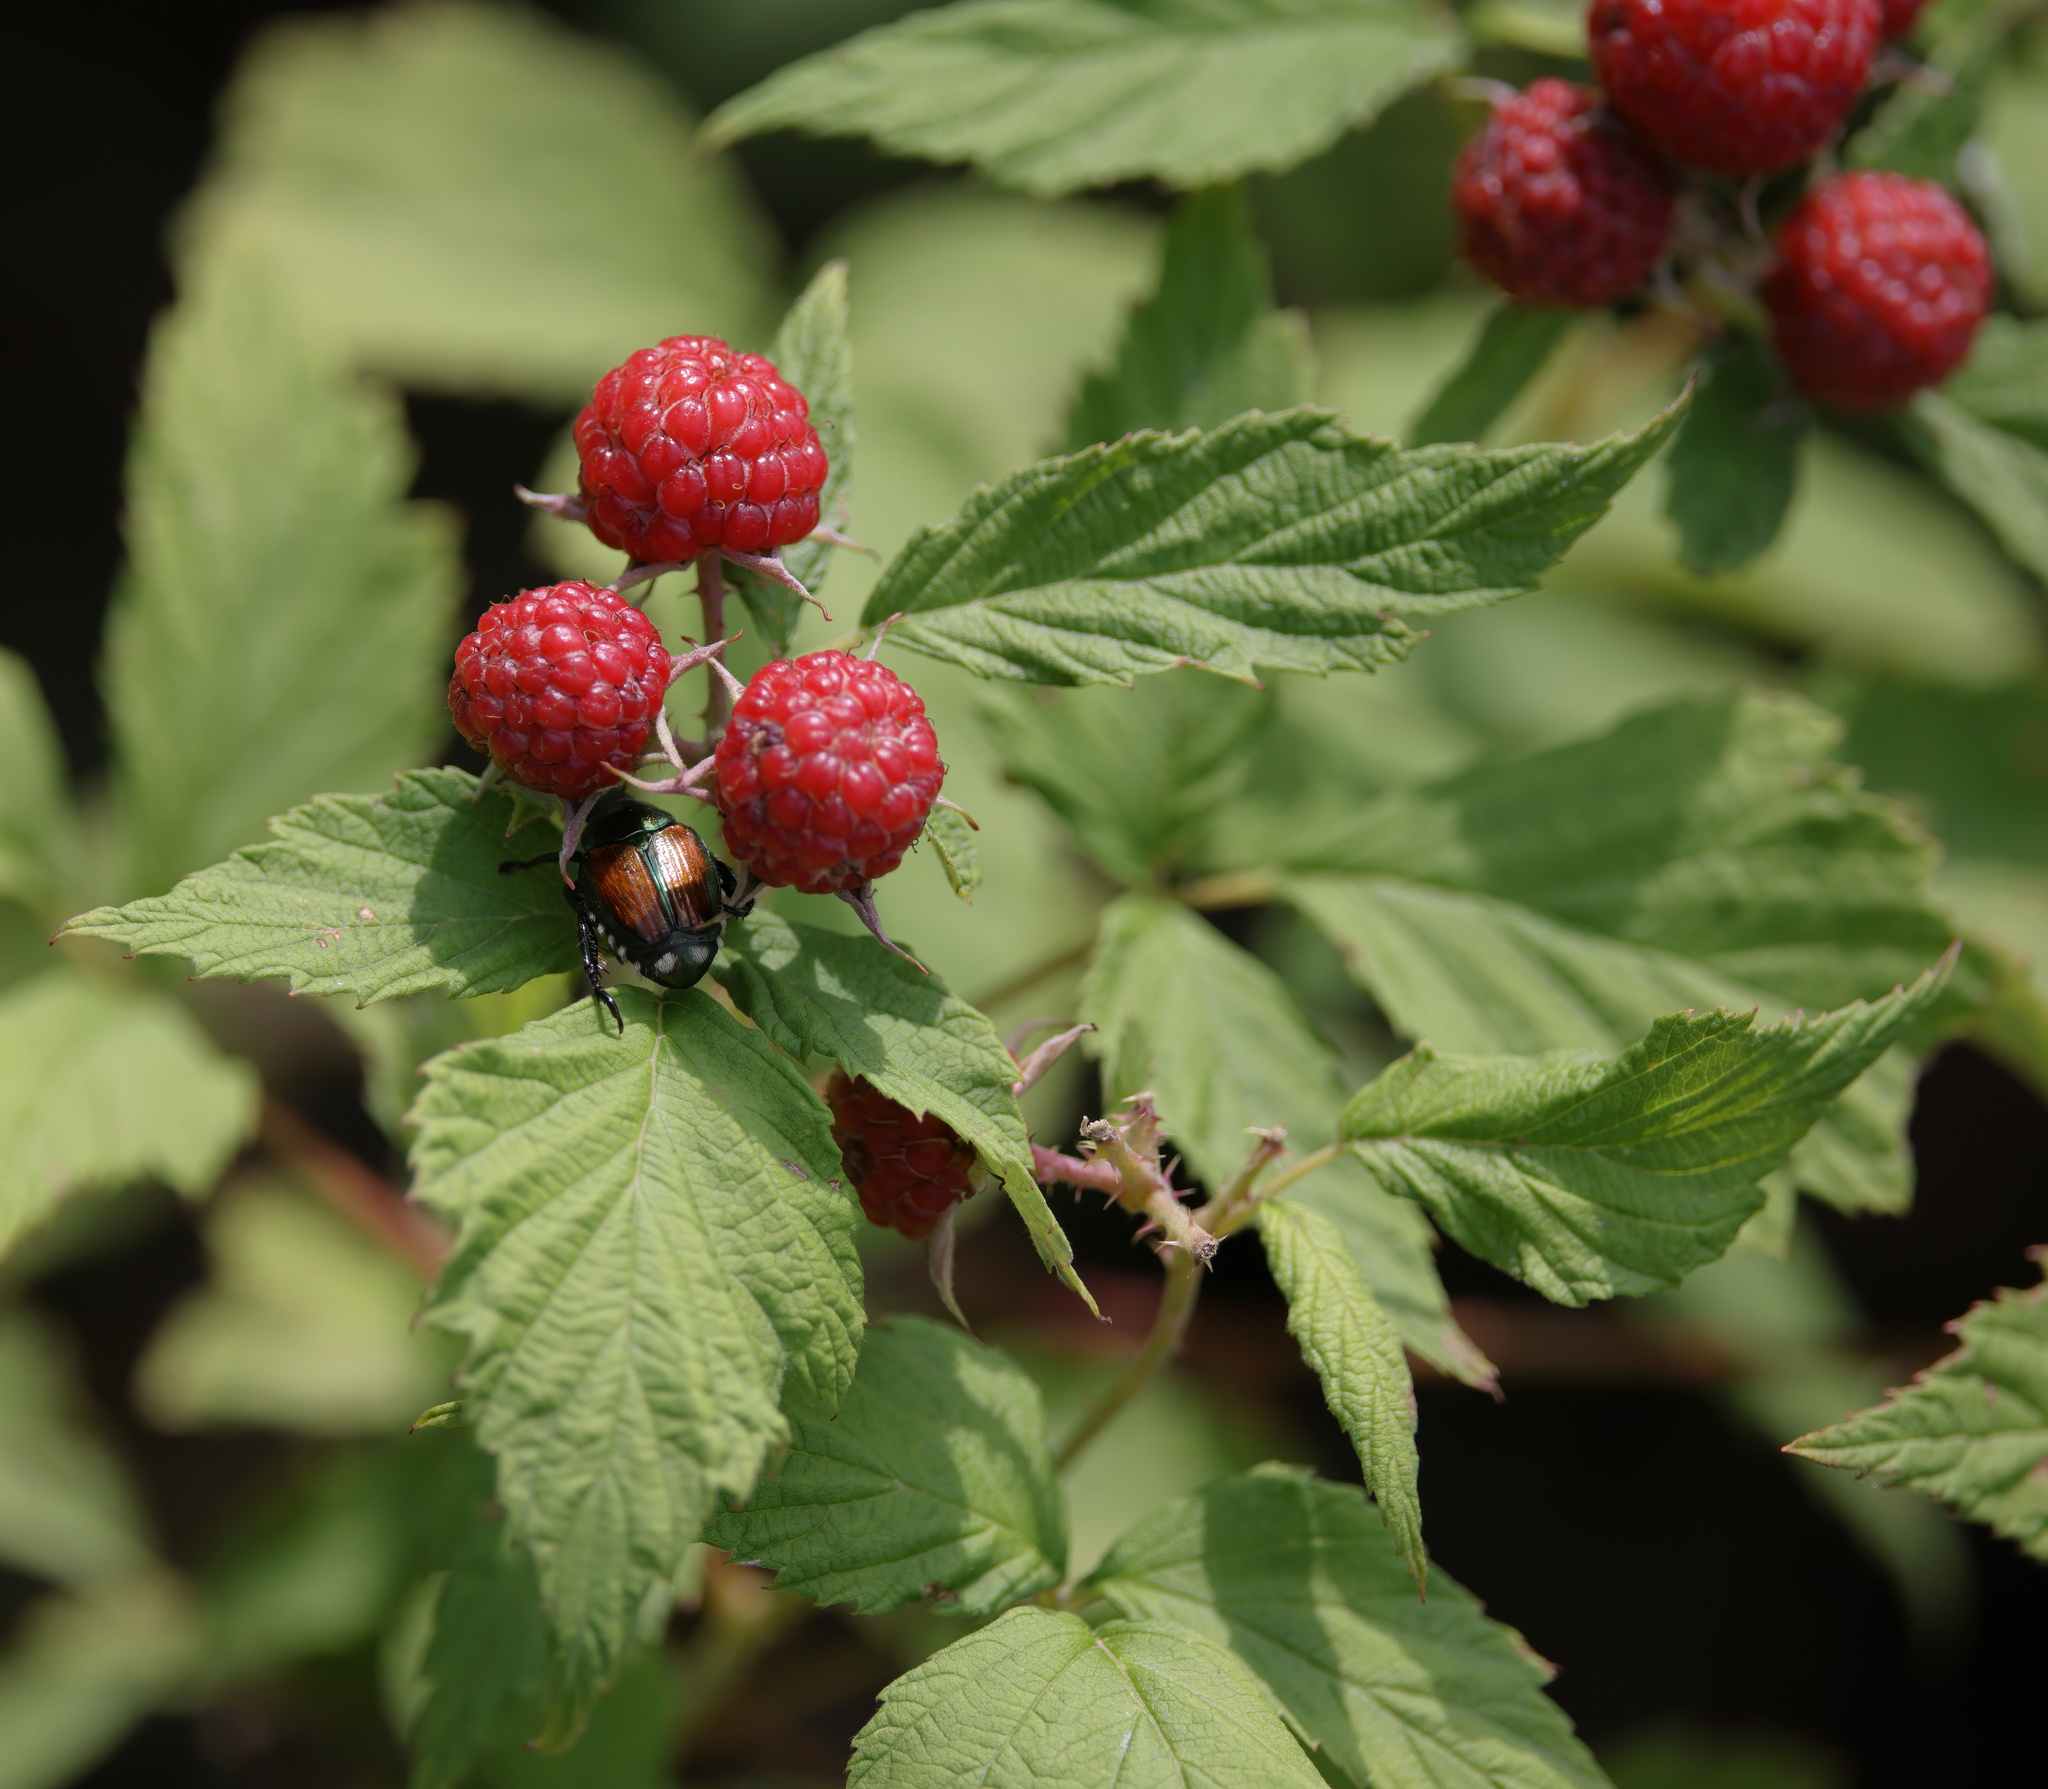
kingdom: Plantae
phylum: Tracheophyta
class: Magnoliopsida
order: Rosales
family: Rosaceae
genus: Rubus
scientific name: Rubus occidentalis
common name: Black raspberry
